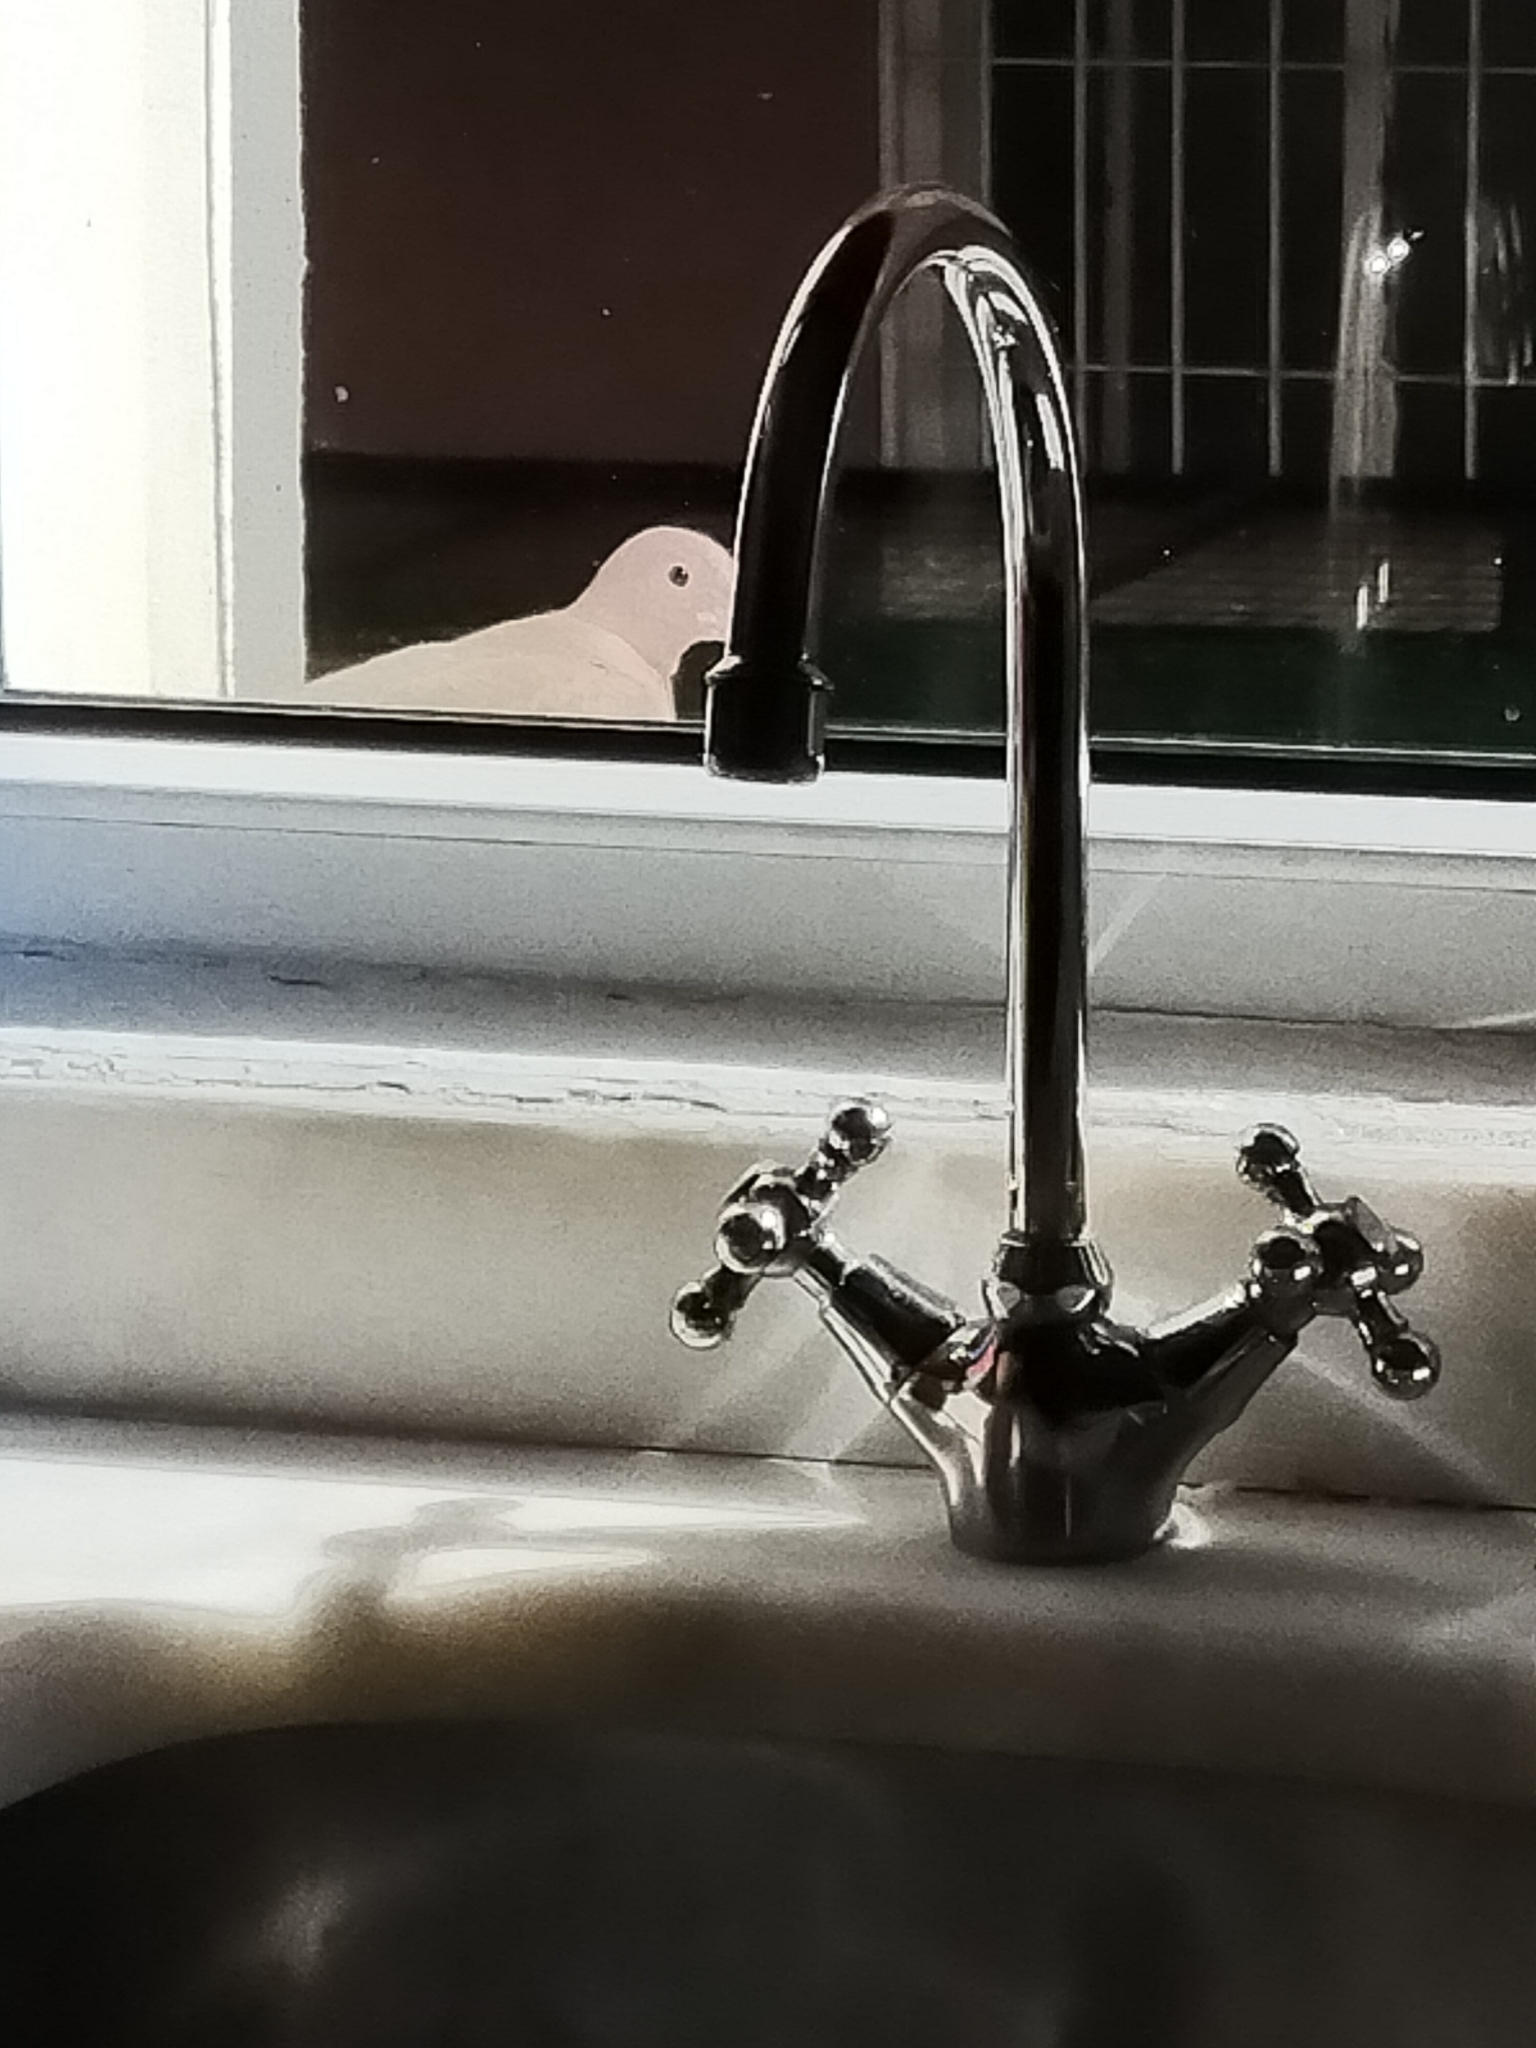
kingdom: Animalia
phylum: Chordata
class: Aves
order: Columbiformes
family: Columbidae
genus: Spilopelia
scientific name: Spilopelia senegalensis
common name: Laughing dove
